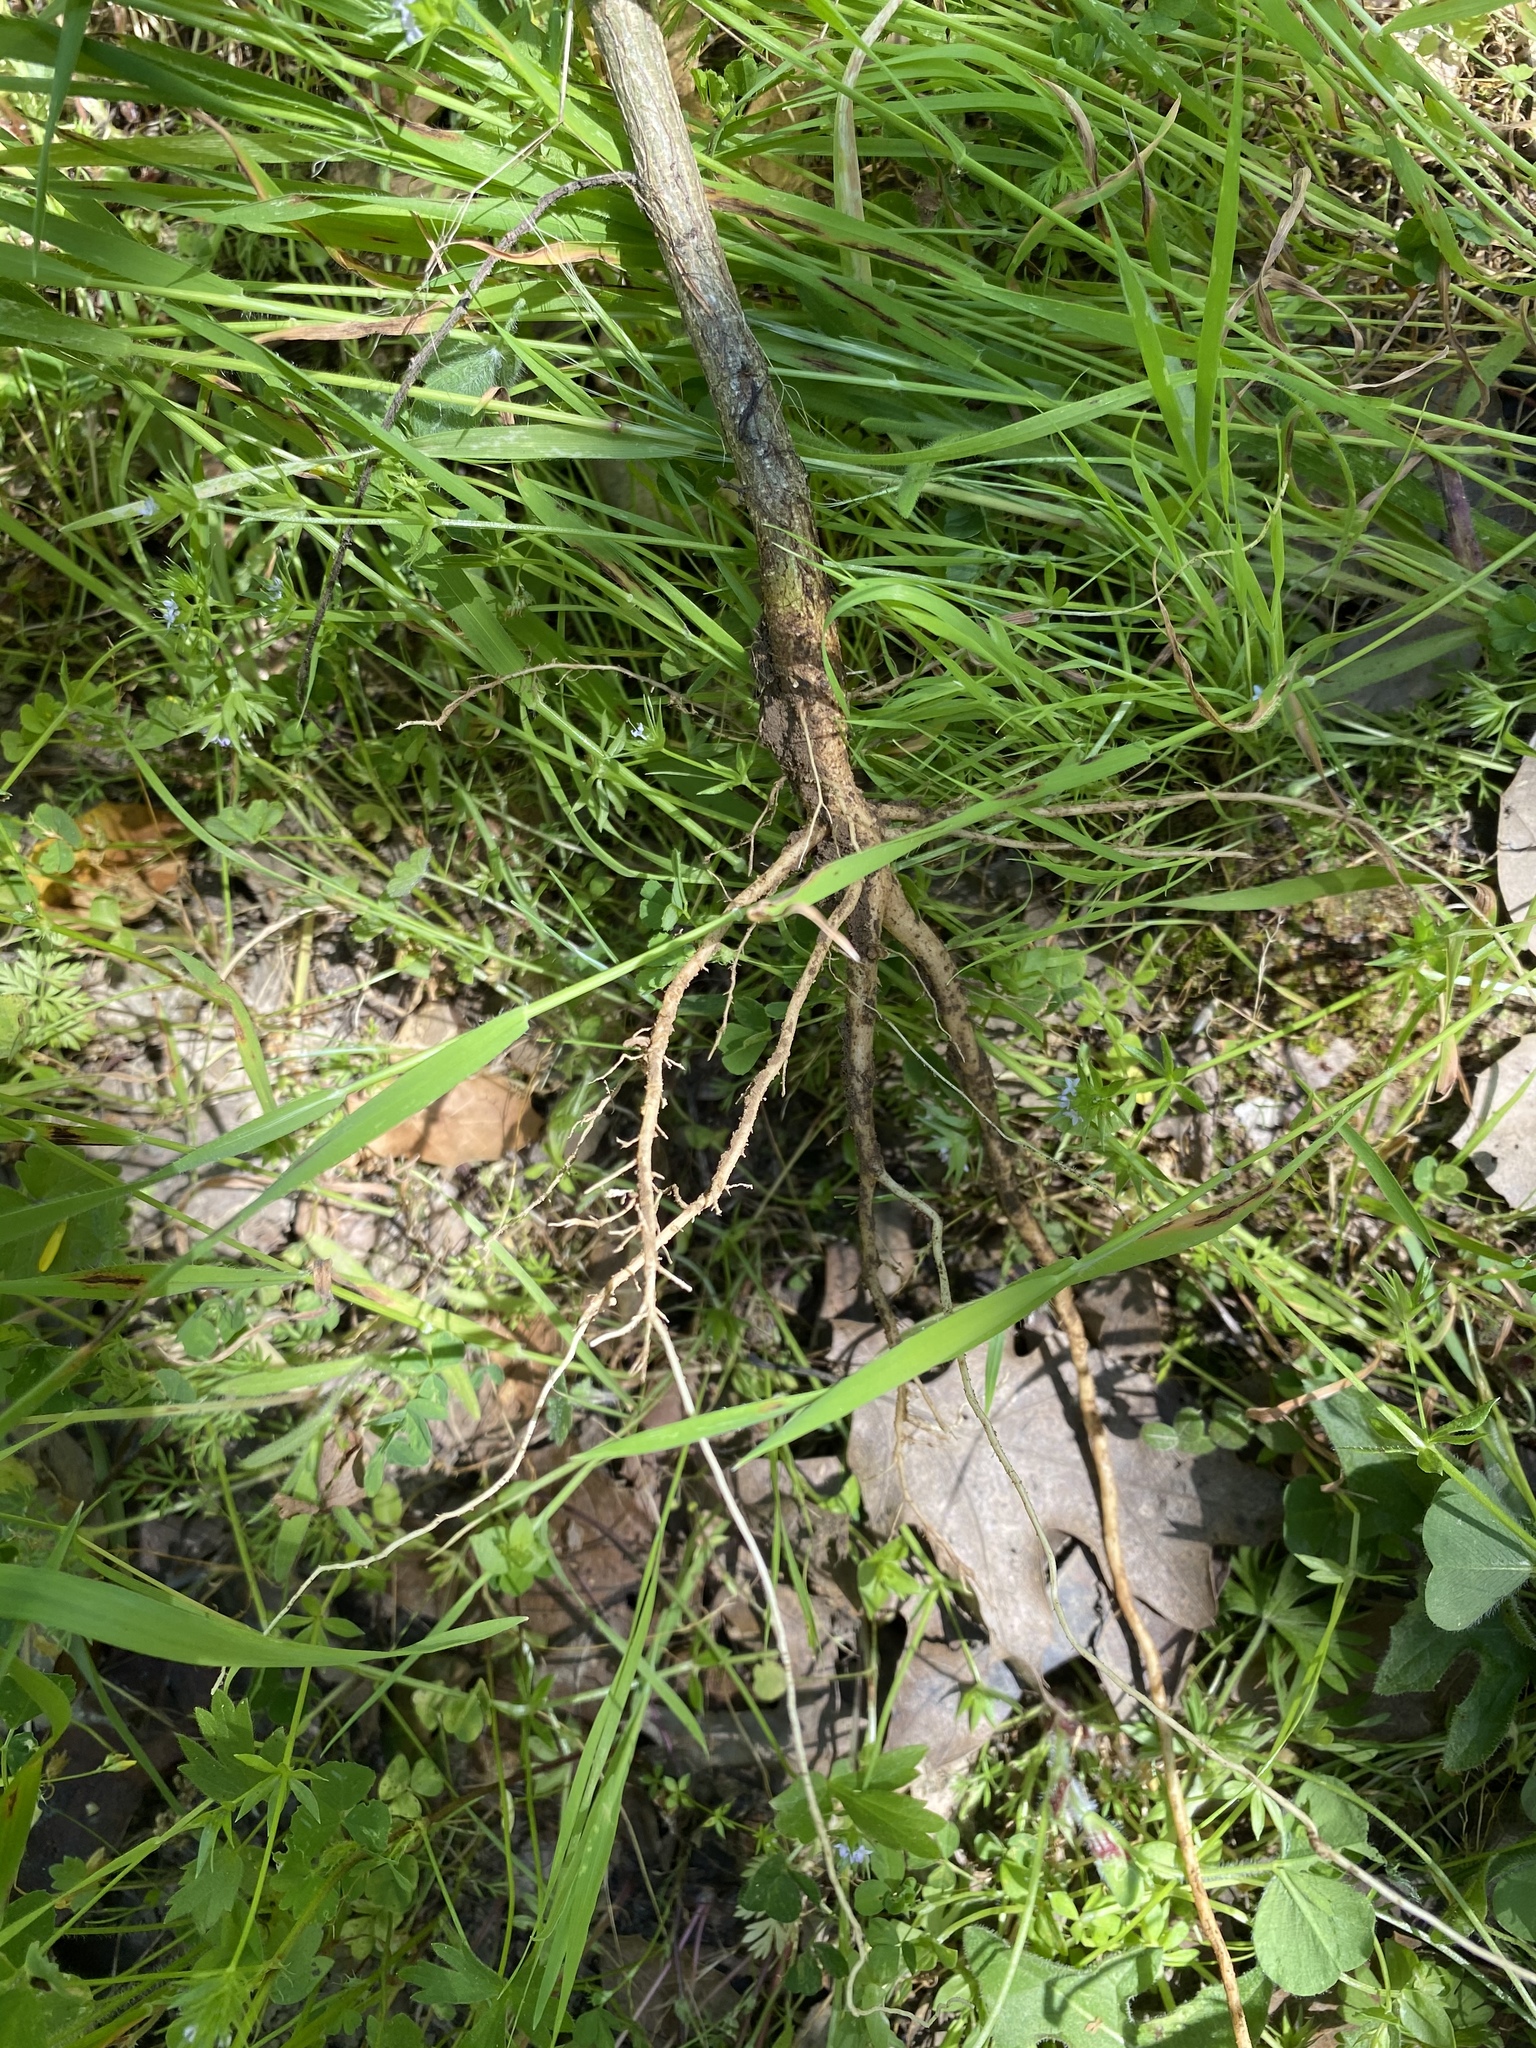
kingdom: Plantae
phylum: Tracheophyta
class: Magnoliopsida
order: Fabales
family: Fabaceae
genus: Genista
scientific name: Genista monspessulana
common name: Montpellier broom
